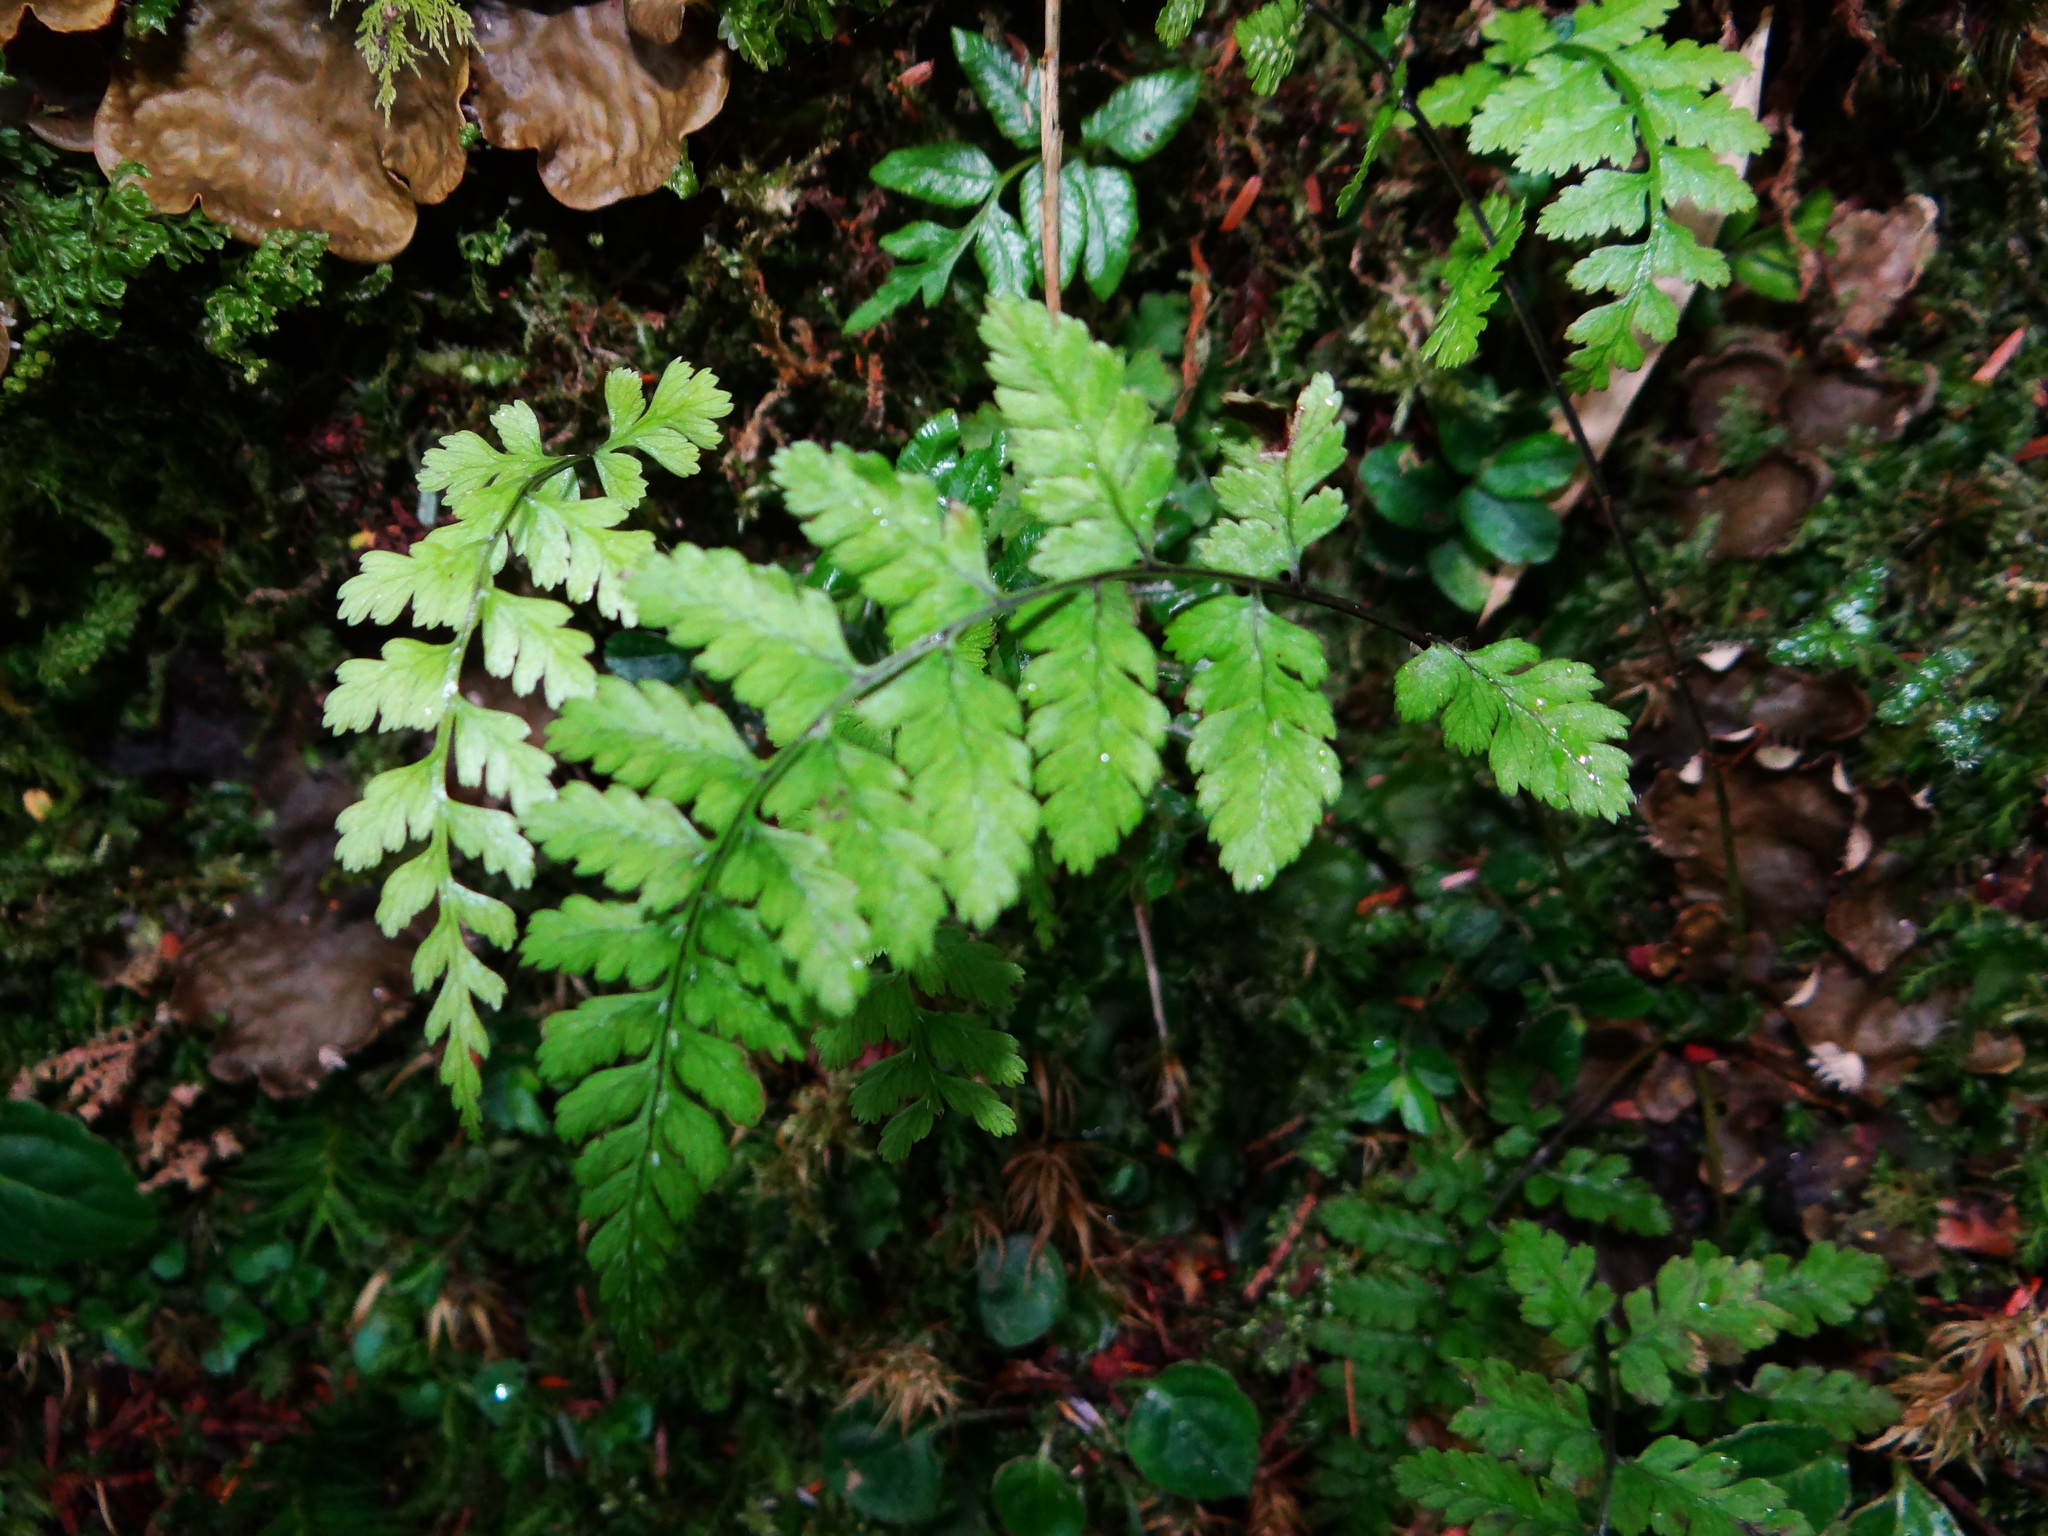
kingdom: Plantae
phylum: Tracheophyta
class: Polypodiopsida
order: Polypodiales
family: Athyriaceae
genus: Athyrium
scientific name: Athyrium nigripes
